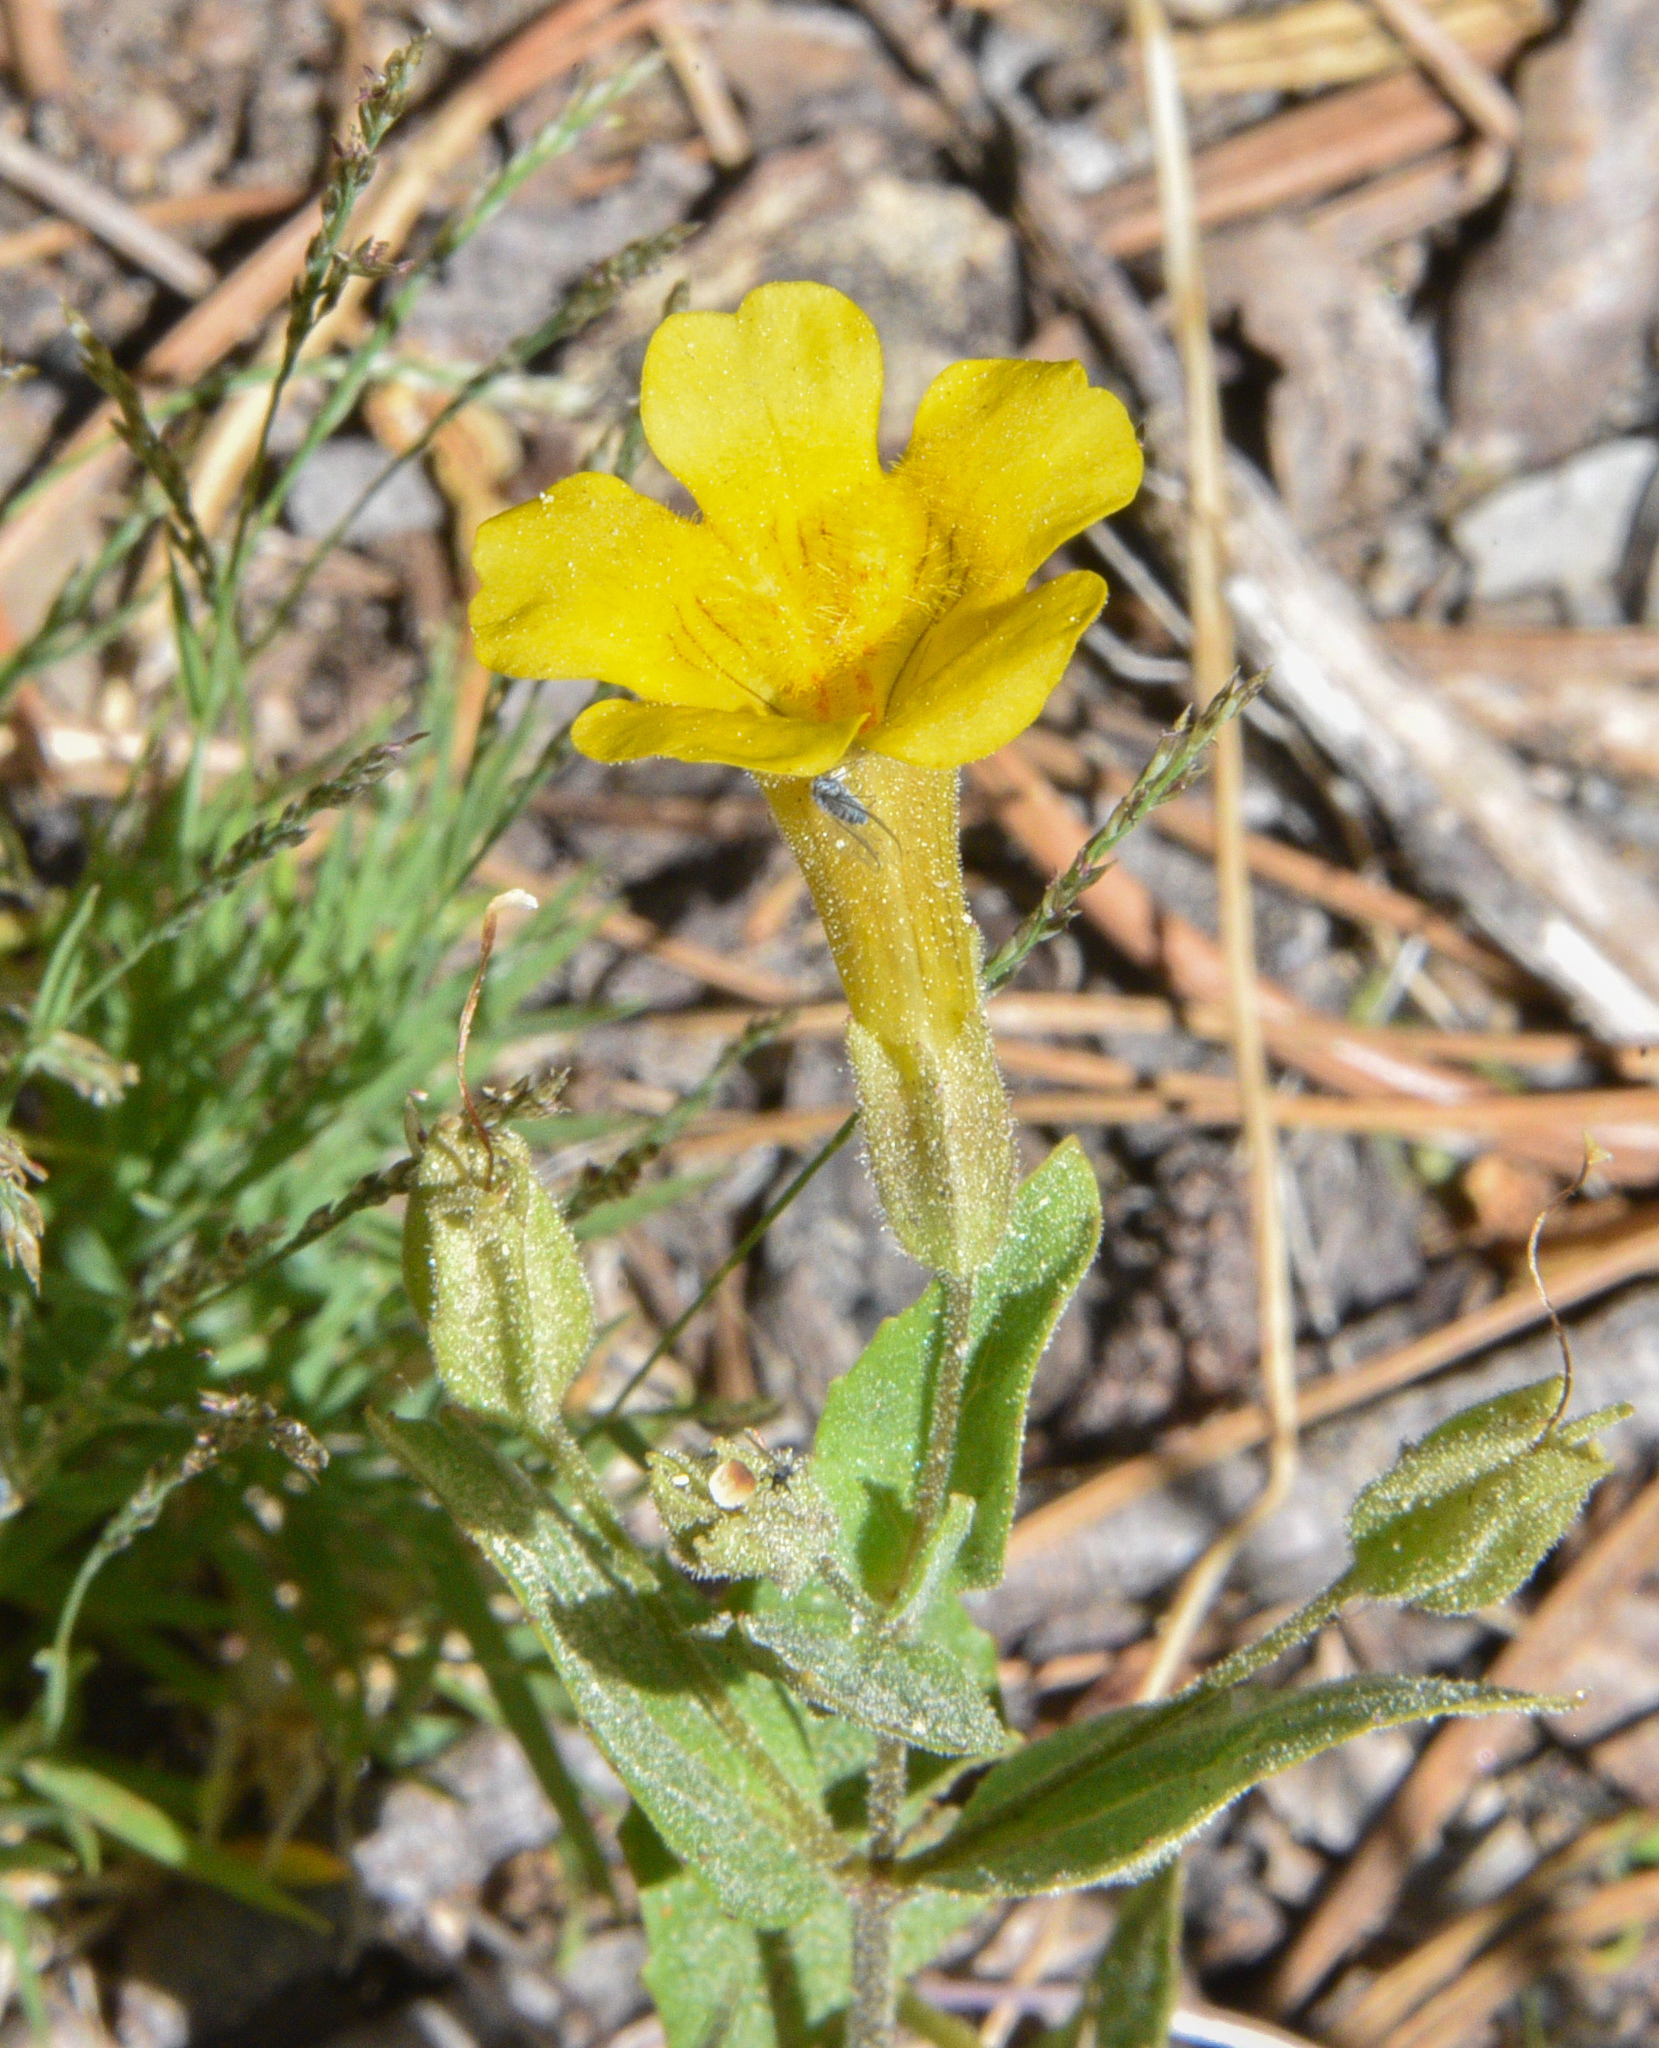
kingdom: Plantae
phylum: Tracheophyta
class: Magnoliopsida
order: Lamiales
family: Phrymaceae
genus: Erythranthe
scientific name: Erythranthe moschata
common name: Muskflower
